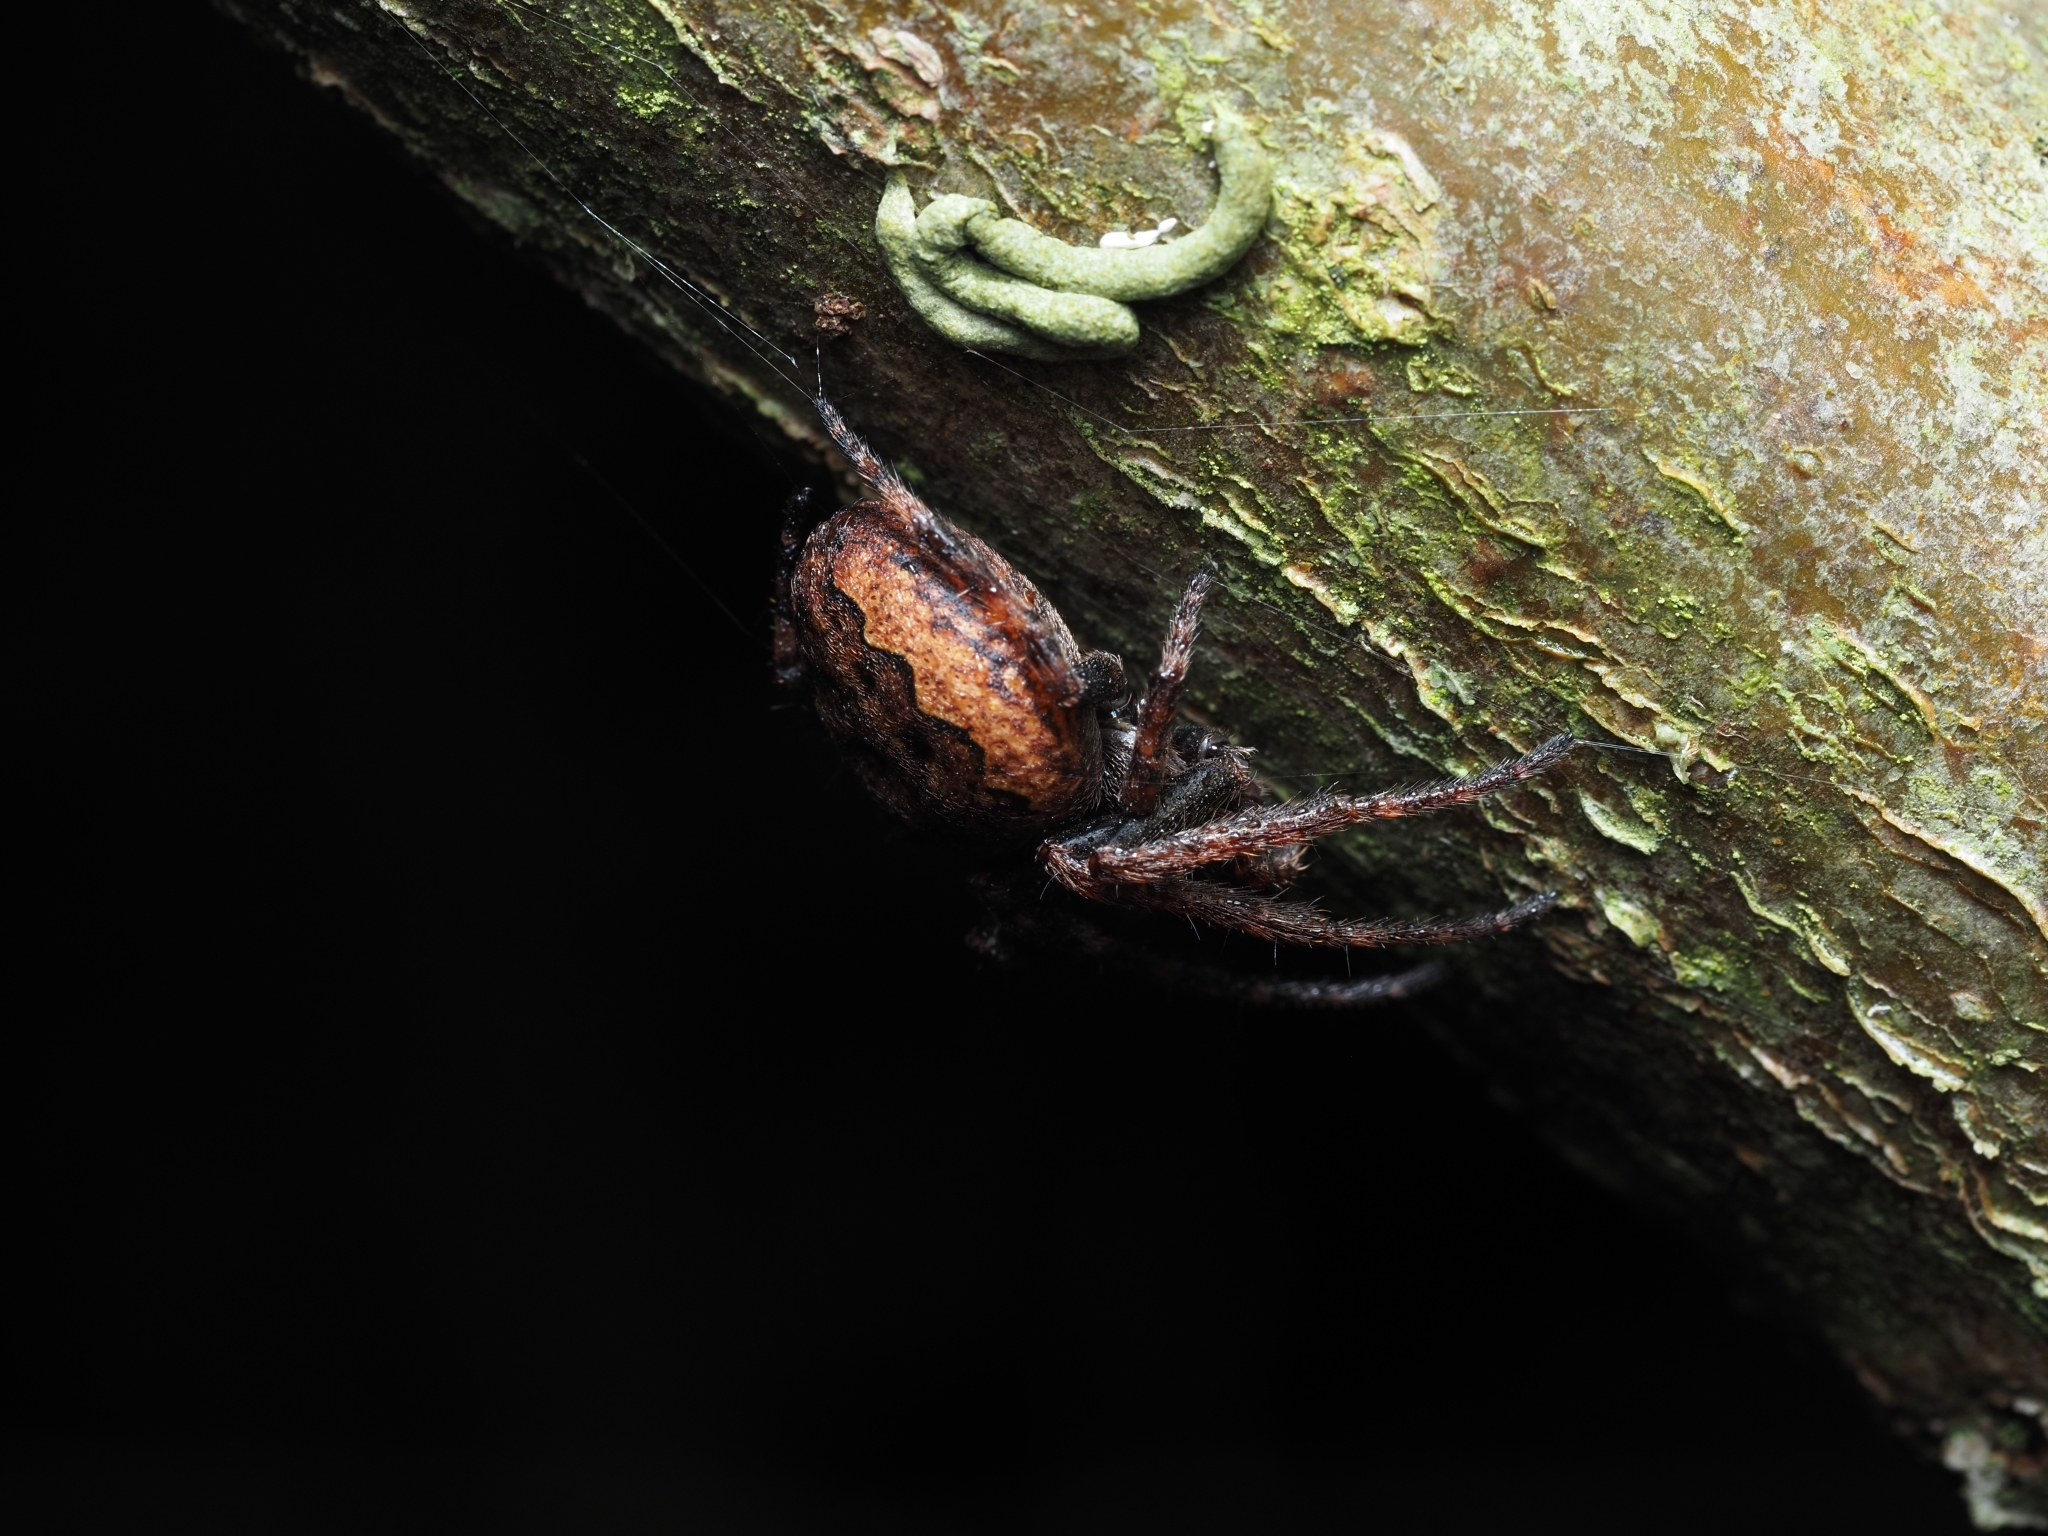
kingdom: Animalia
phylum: Arthropoda
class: Arachnida
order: Araneae
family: Araneidae
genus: Nuctenea
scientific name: Nuctenea umbratica
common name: Toad spider
